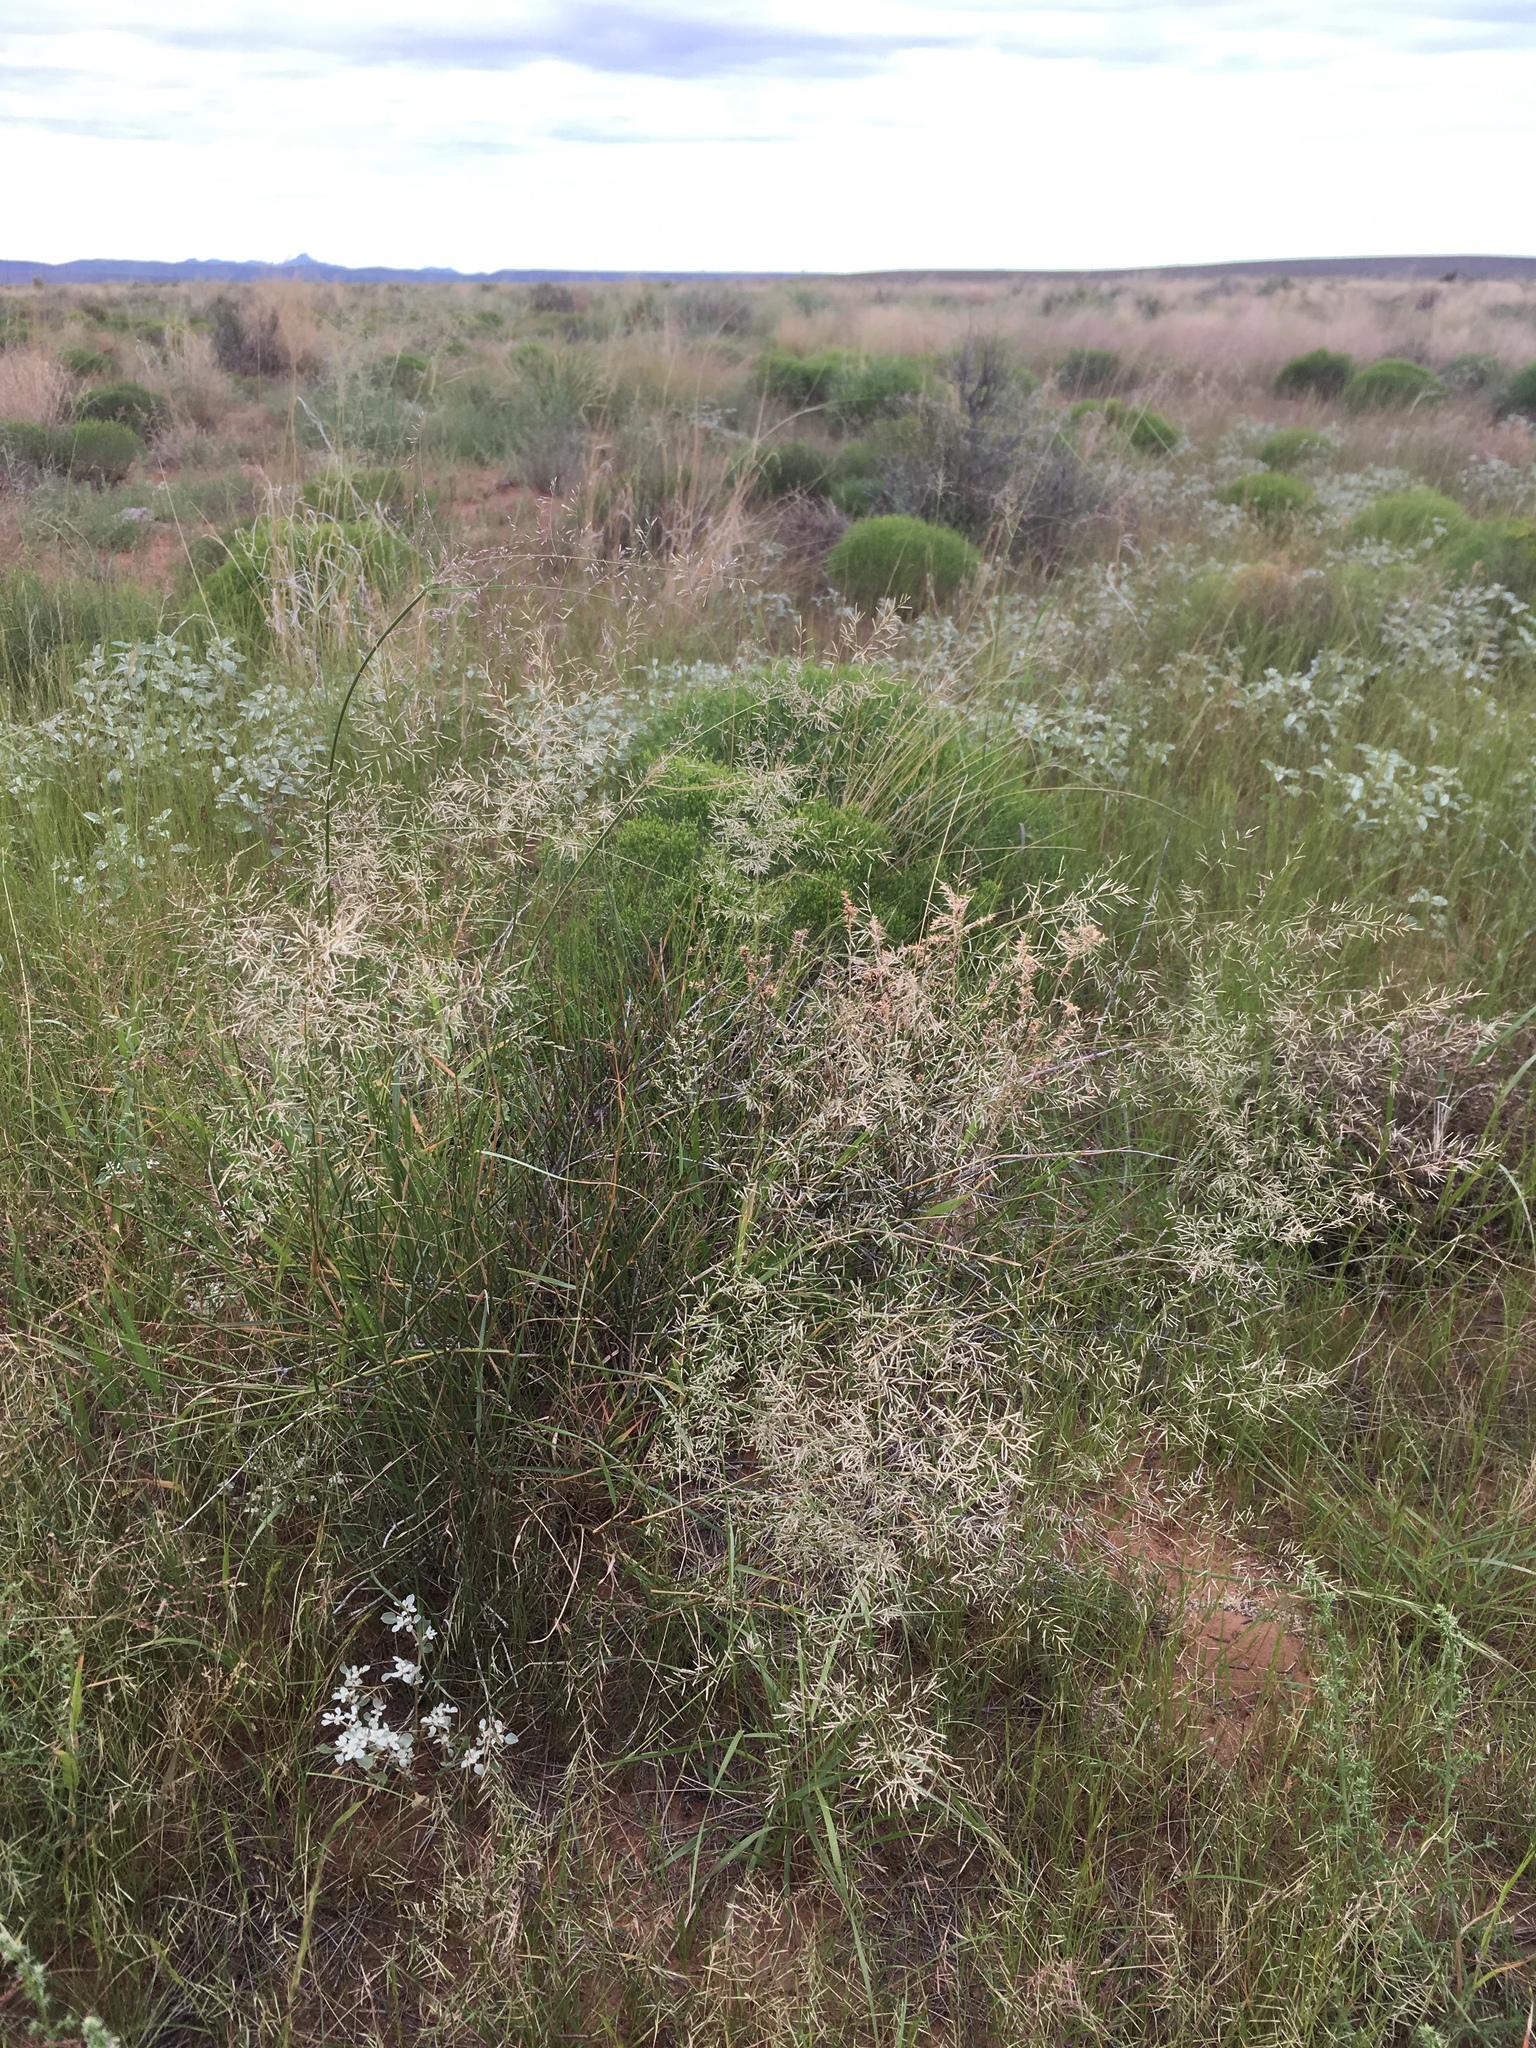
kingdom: Plantae
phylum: Tracheophyta
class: Liliopsida
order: Poales
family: Poaceae
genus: Eragrostis
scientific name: Eragrostis lehmanniana
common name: Lehmann lovegrass
